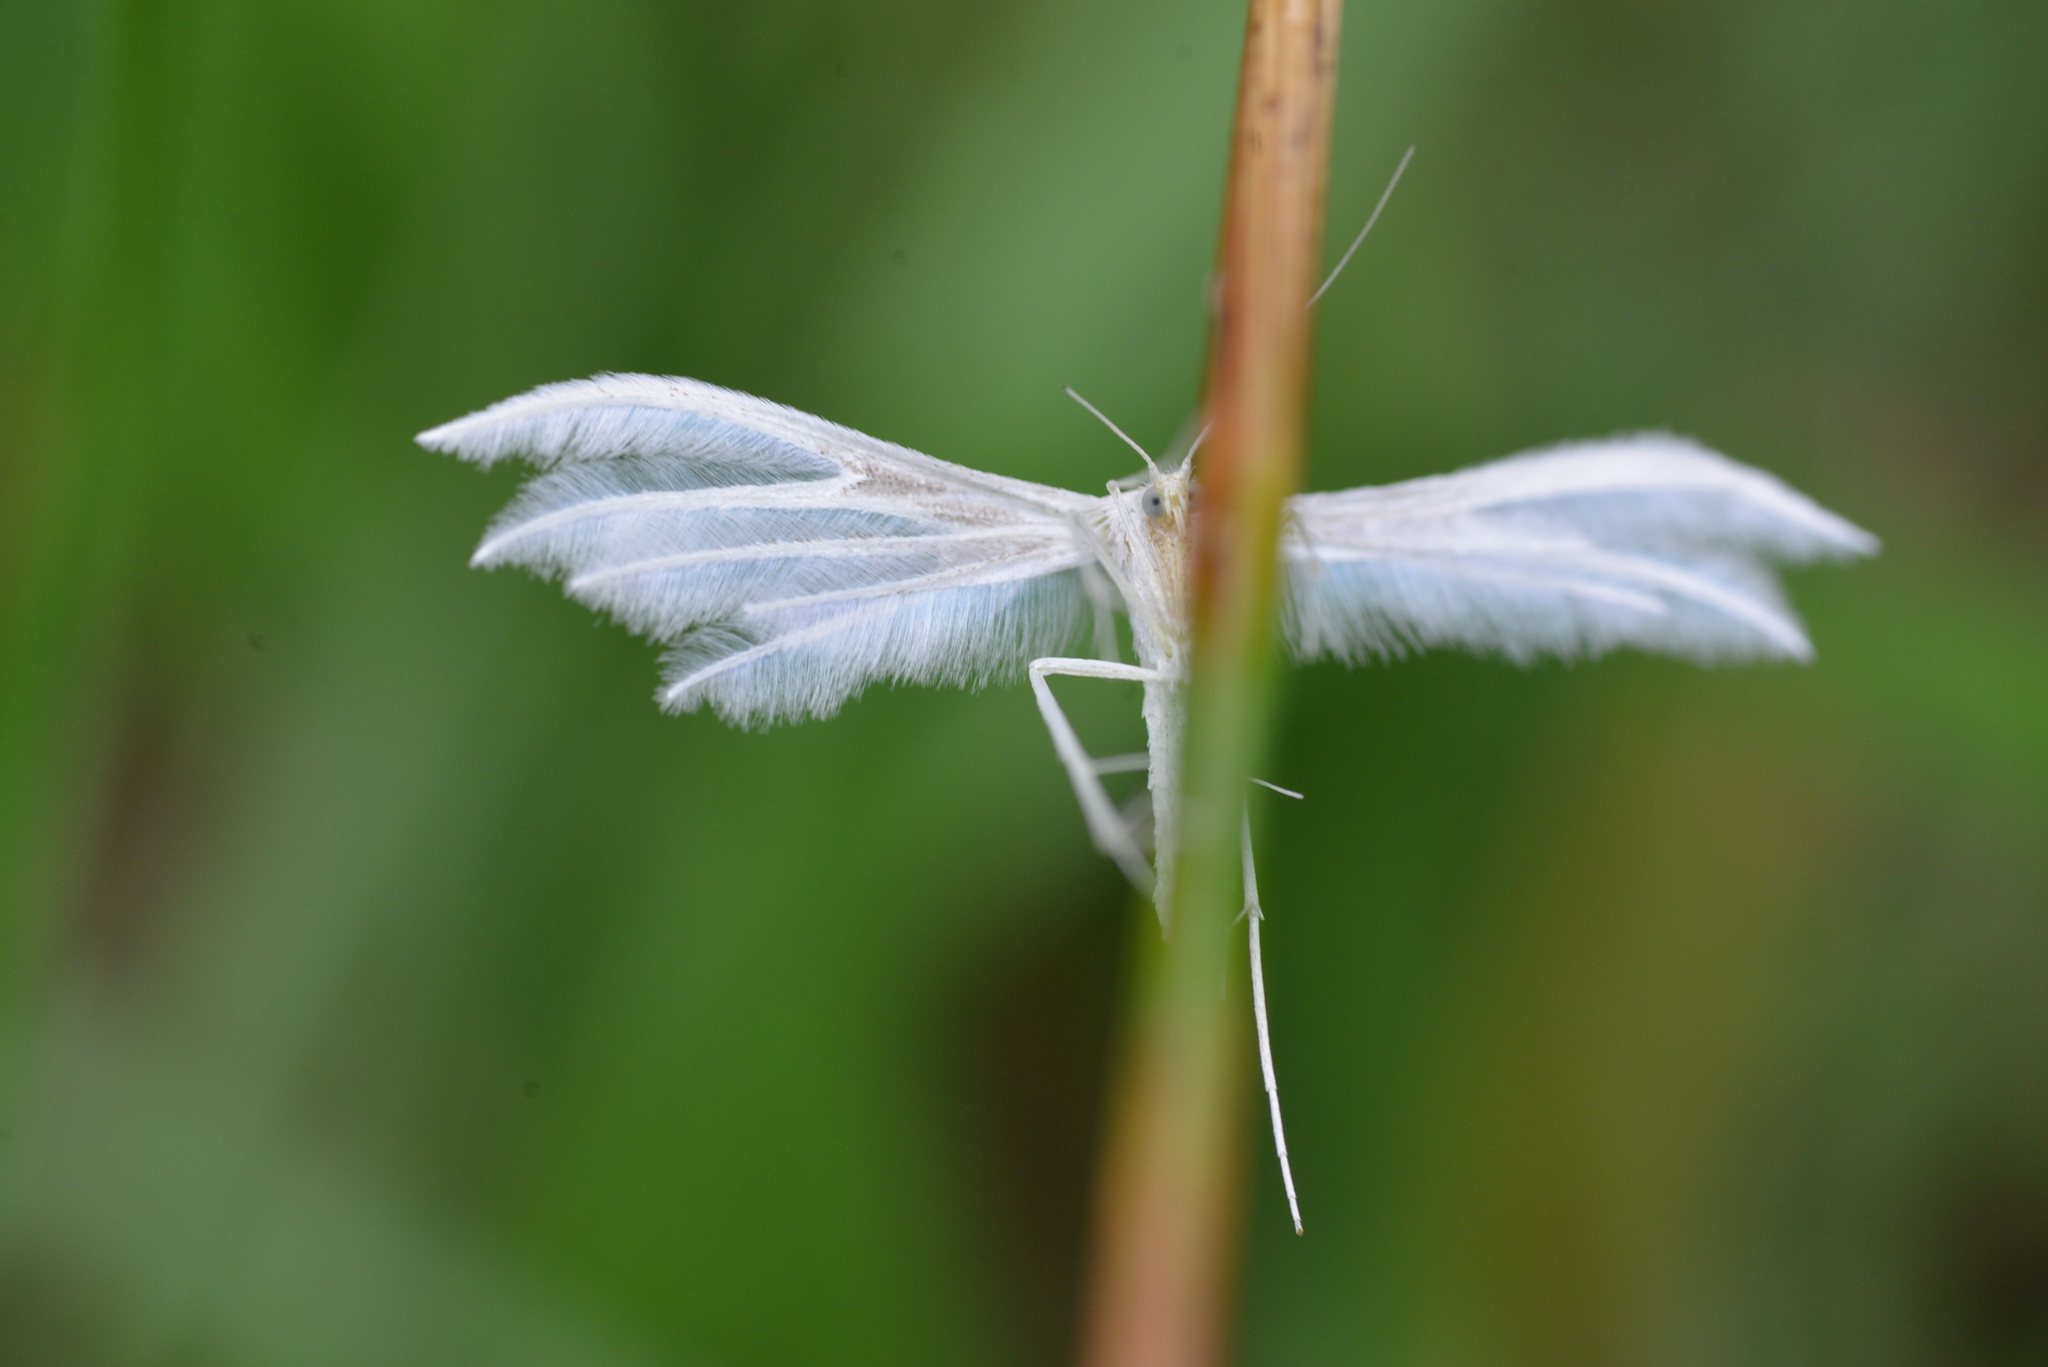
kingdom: Animalia
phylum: Arthropoda
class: Insecta
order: Lepidoptera
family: Pterophoridae
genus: Pterophorus
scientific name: Pterophorus pentadactyla
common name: White plume moth
